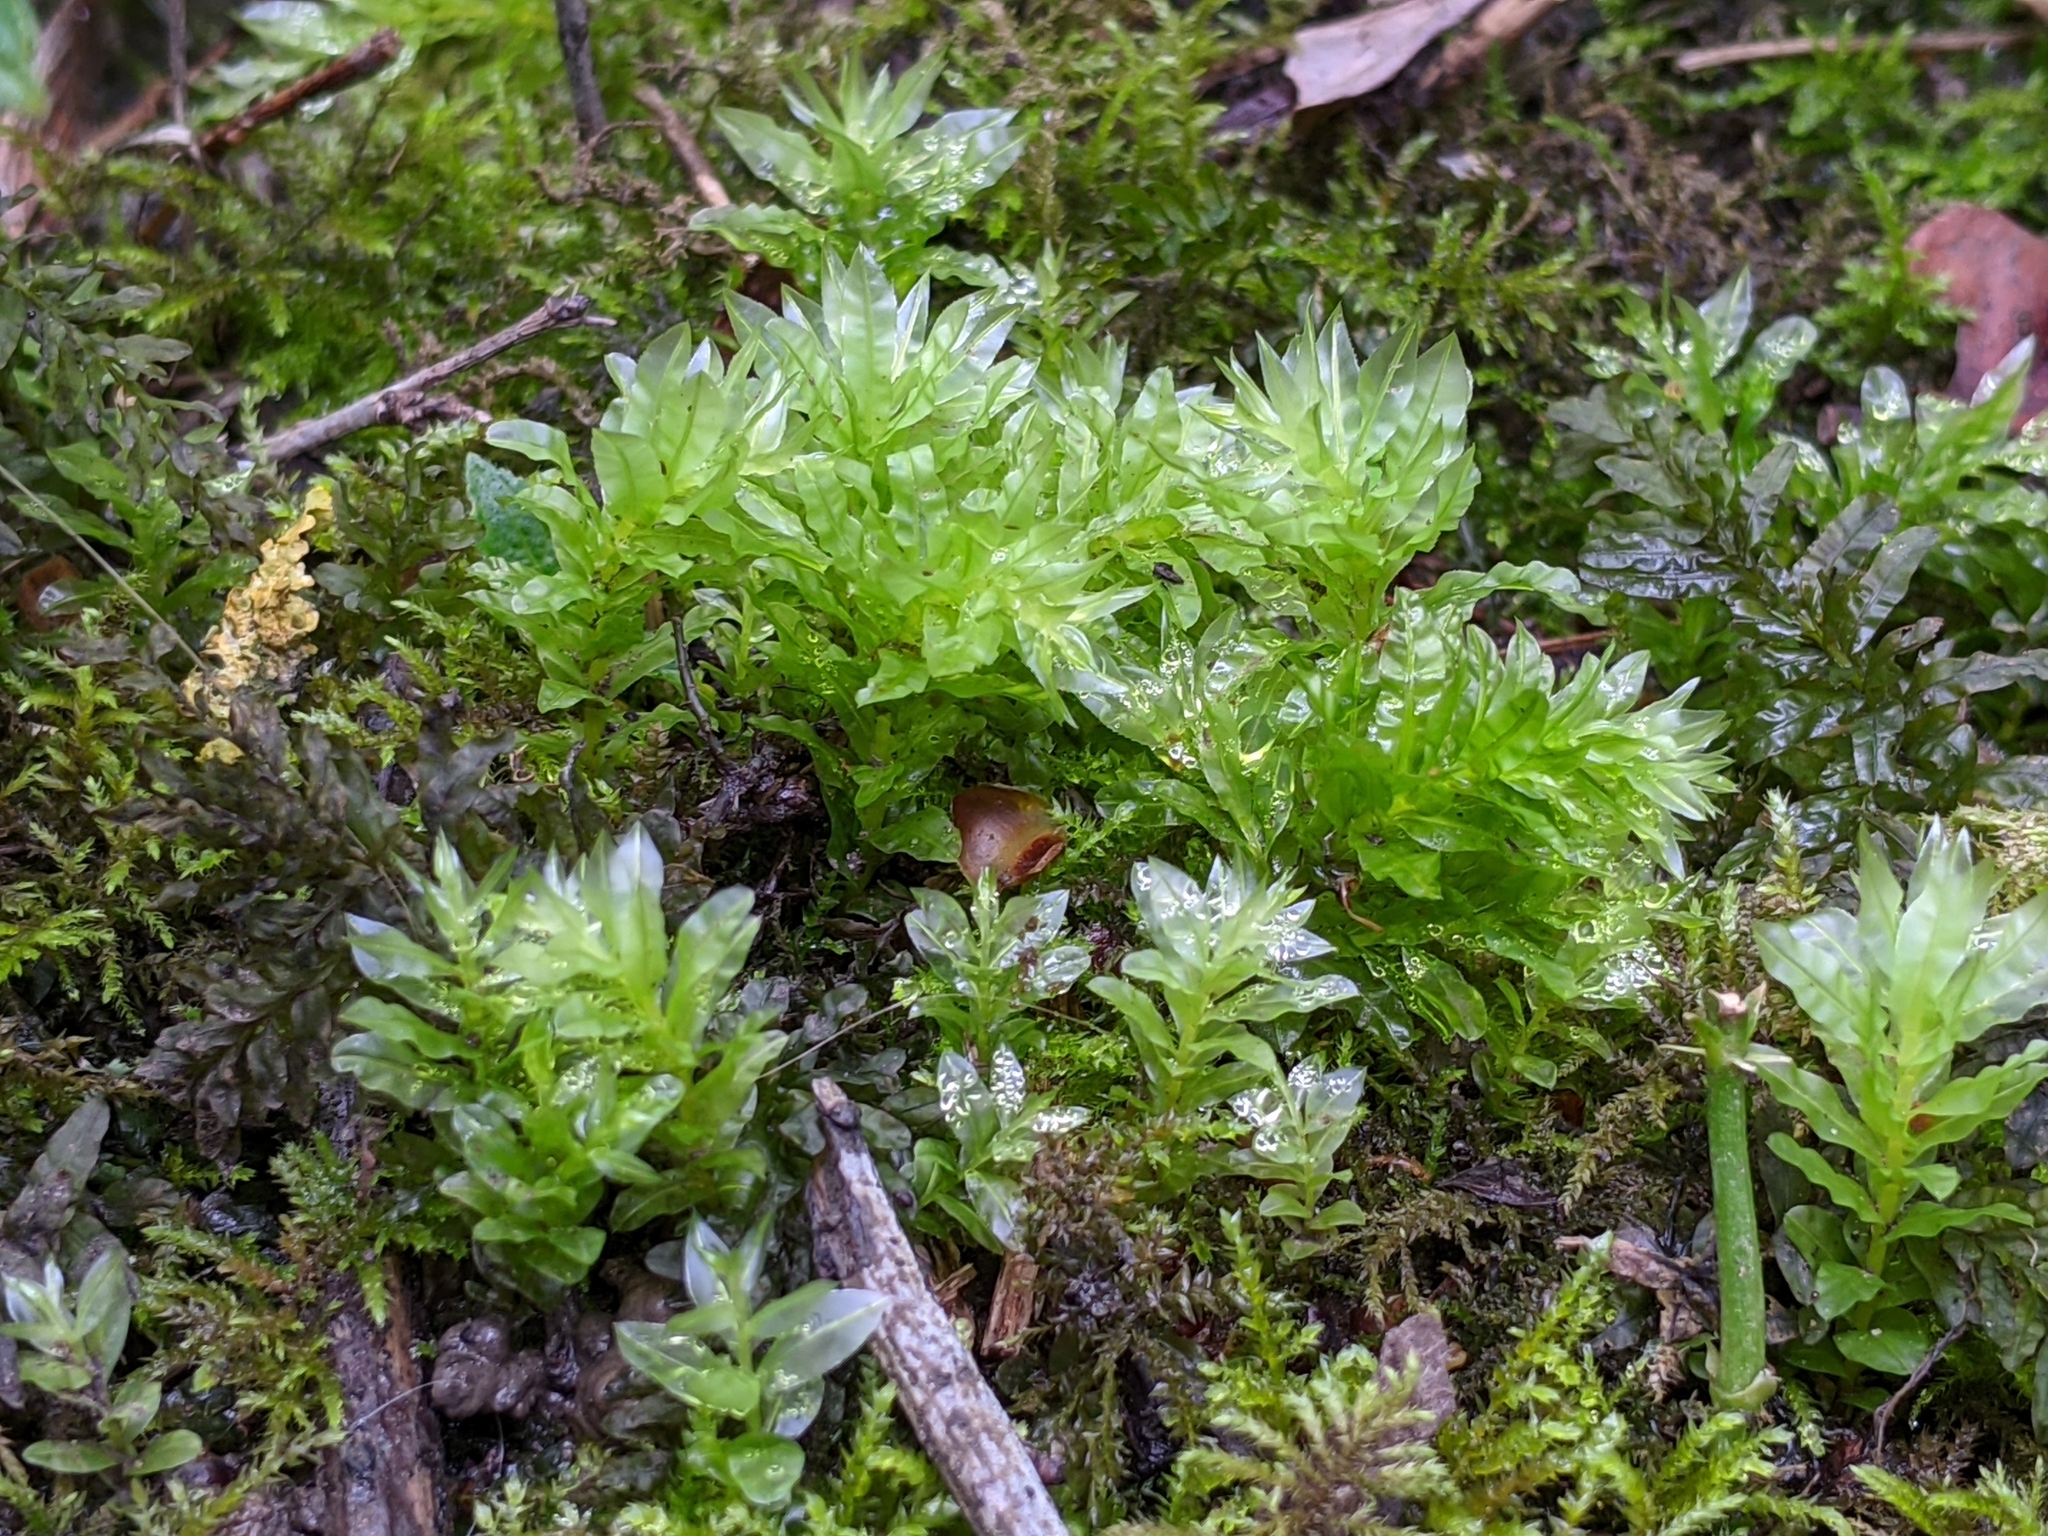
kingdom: Plantae
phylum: Bryophyta
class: Bryopsida
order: Bryales
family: Mniaceae
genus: Plagiomnium
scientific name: Plagiomnium undulatum
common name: Hart's-tongue thyme-moss
